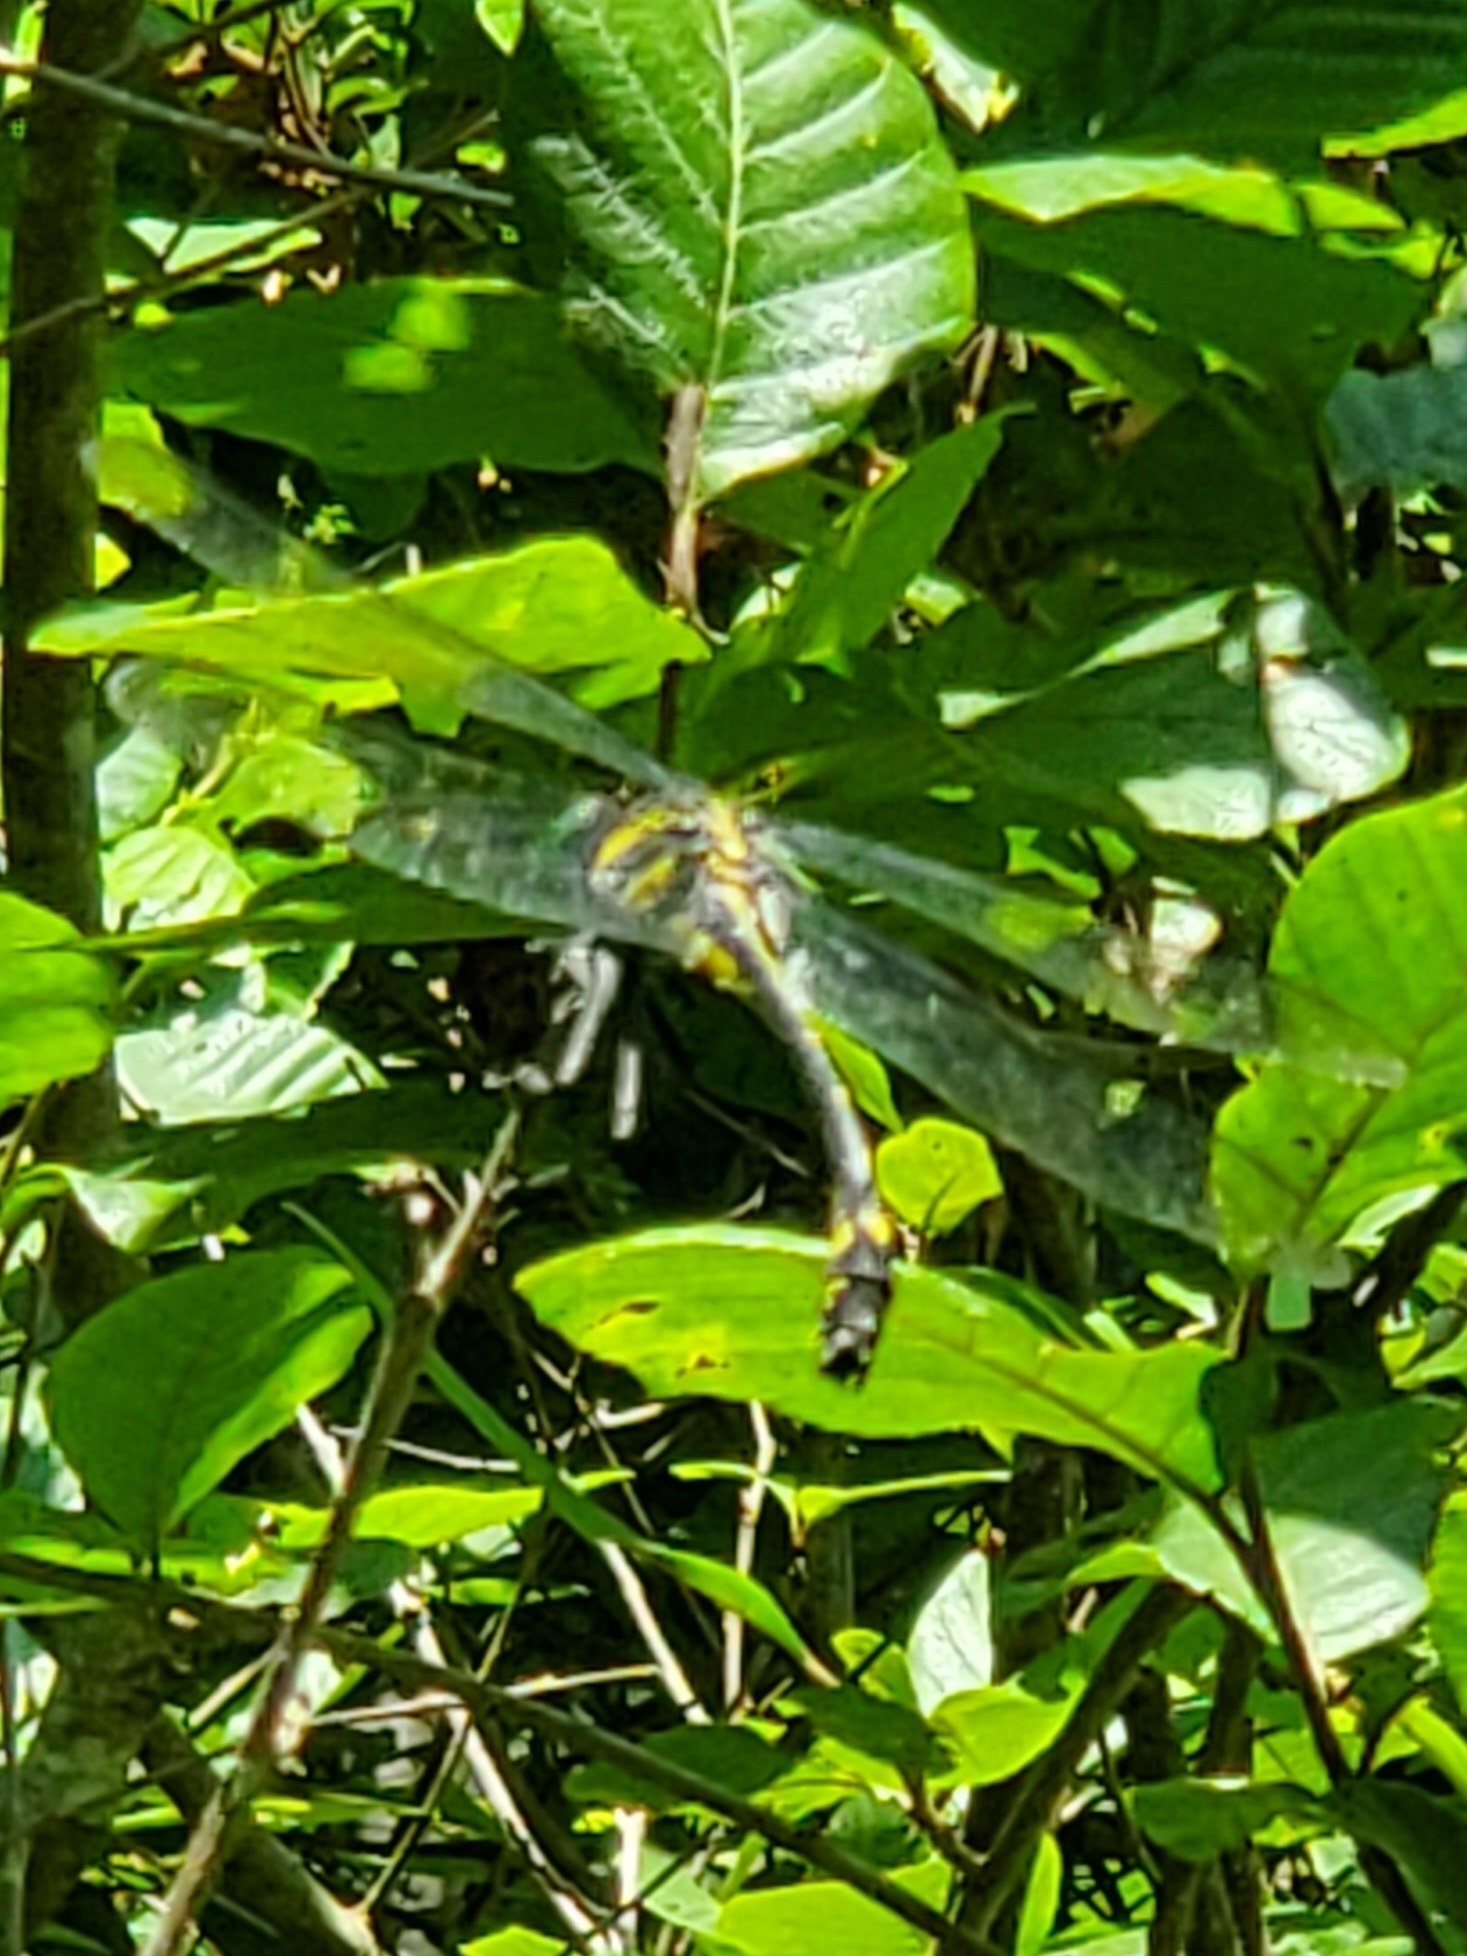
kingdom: Animalia
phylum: Arthropoda
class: Insecta
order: Odonata
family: Gomphidae
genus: Hagenius
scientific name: Hagenius brevistylus
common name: Dragonhunter
